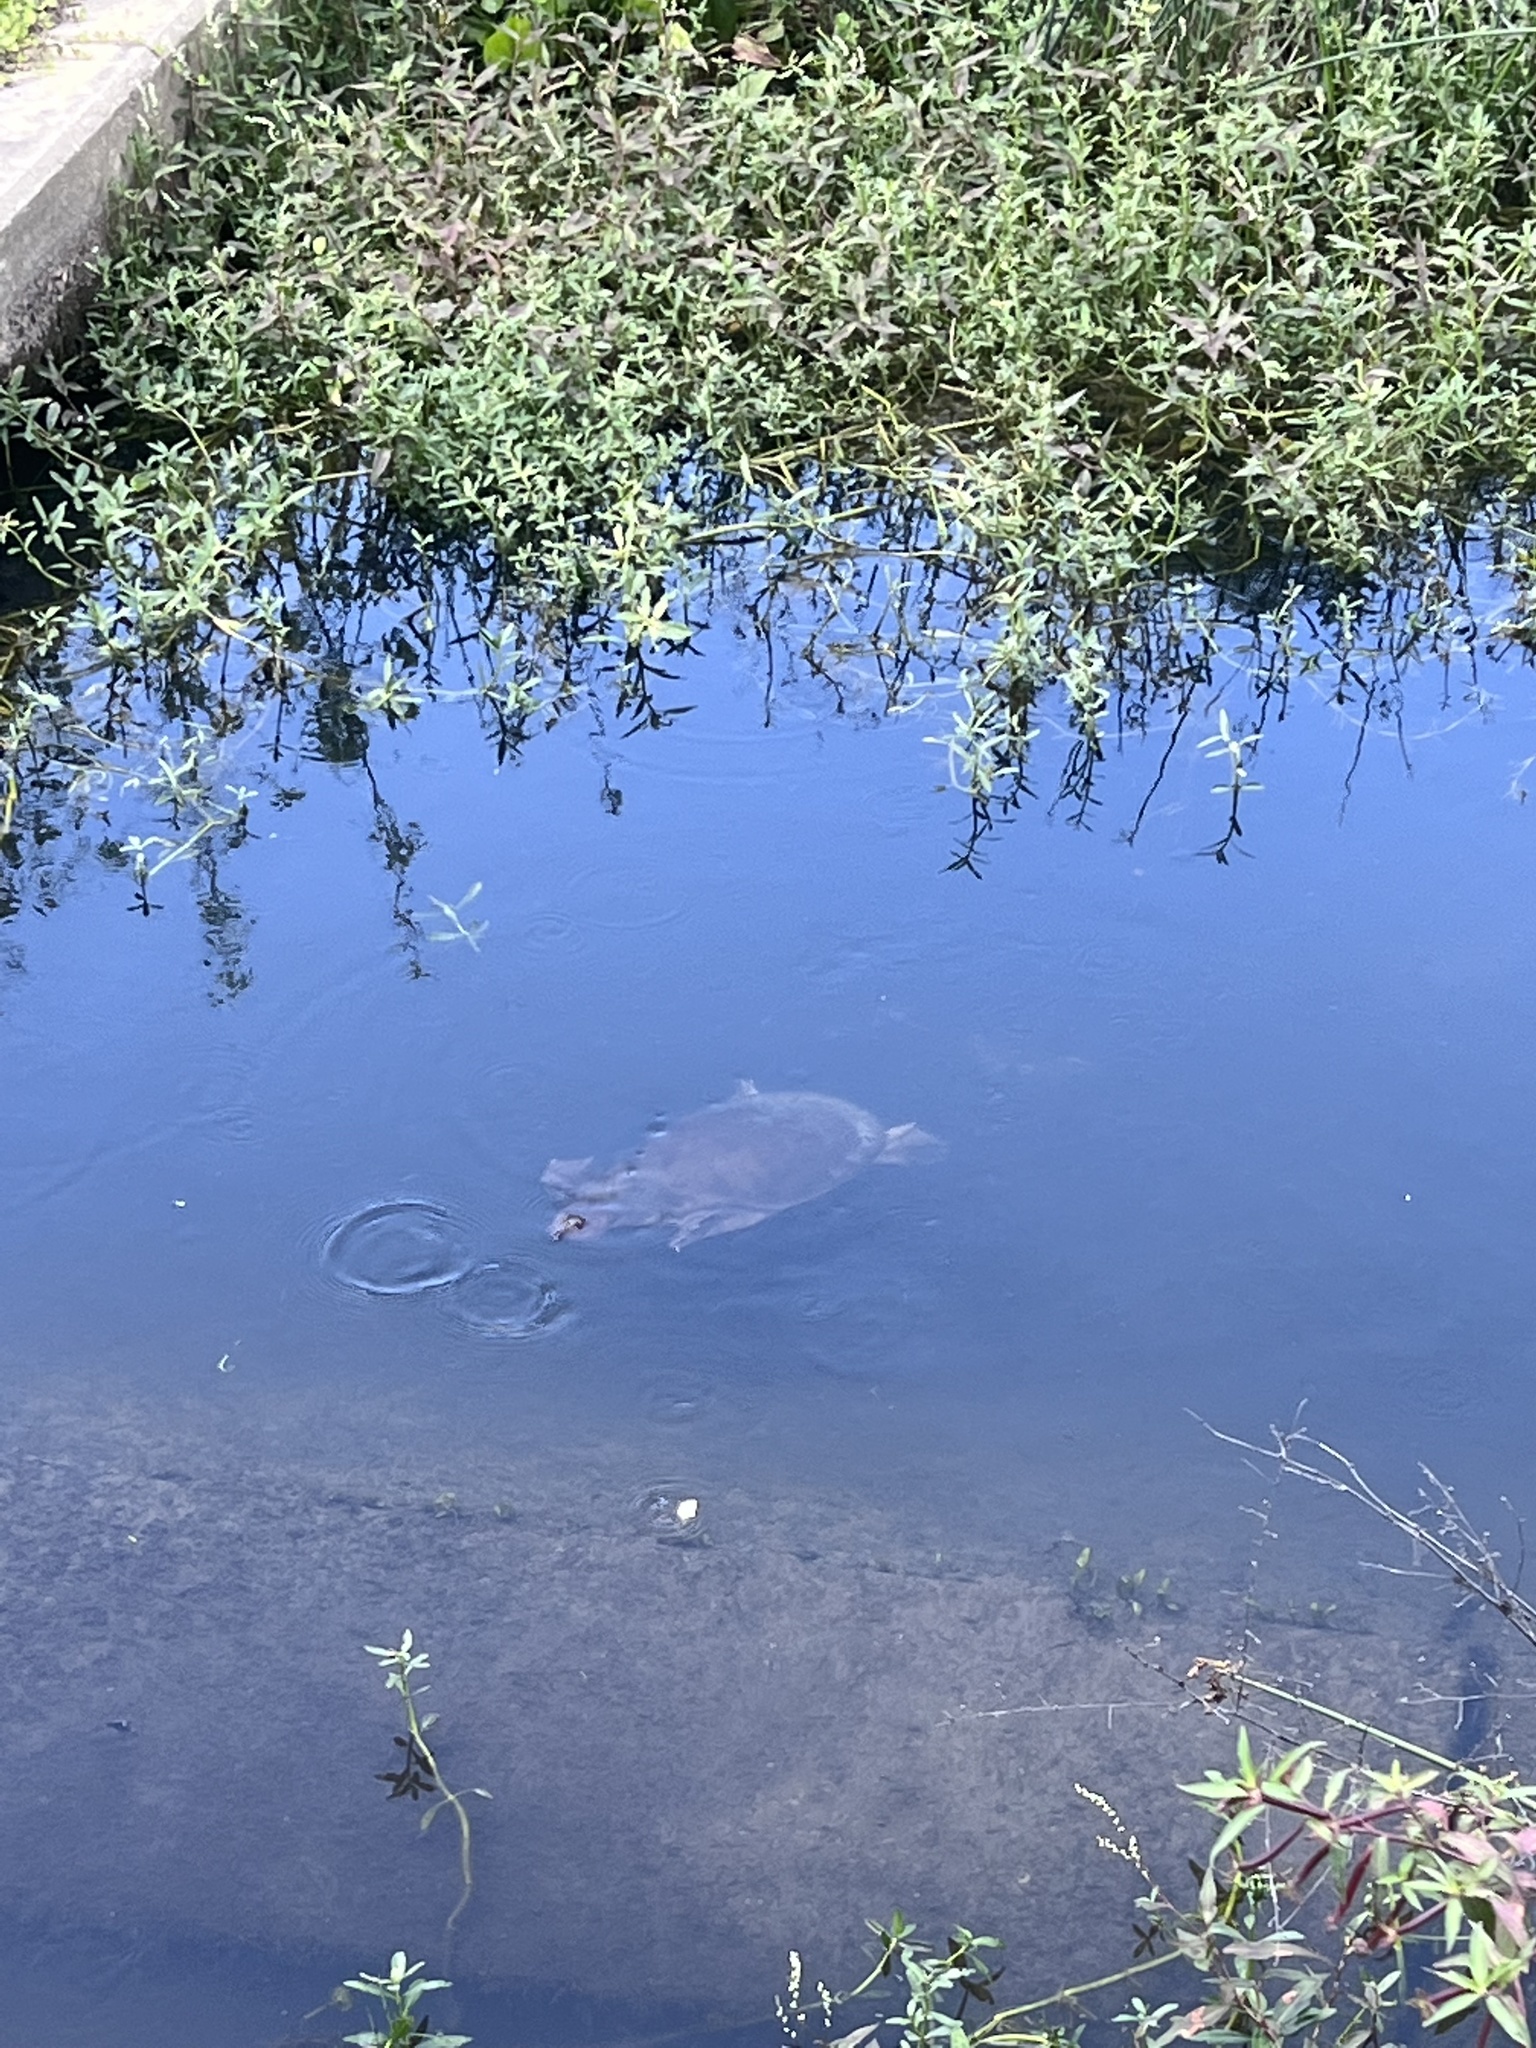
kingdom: Animalia
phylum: Chordata
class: Testudines
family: Trionychidae
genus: Apalone
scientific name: Apalone ferox
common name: Florida softshell turtle
